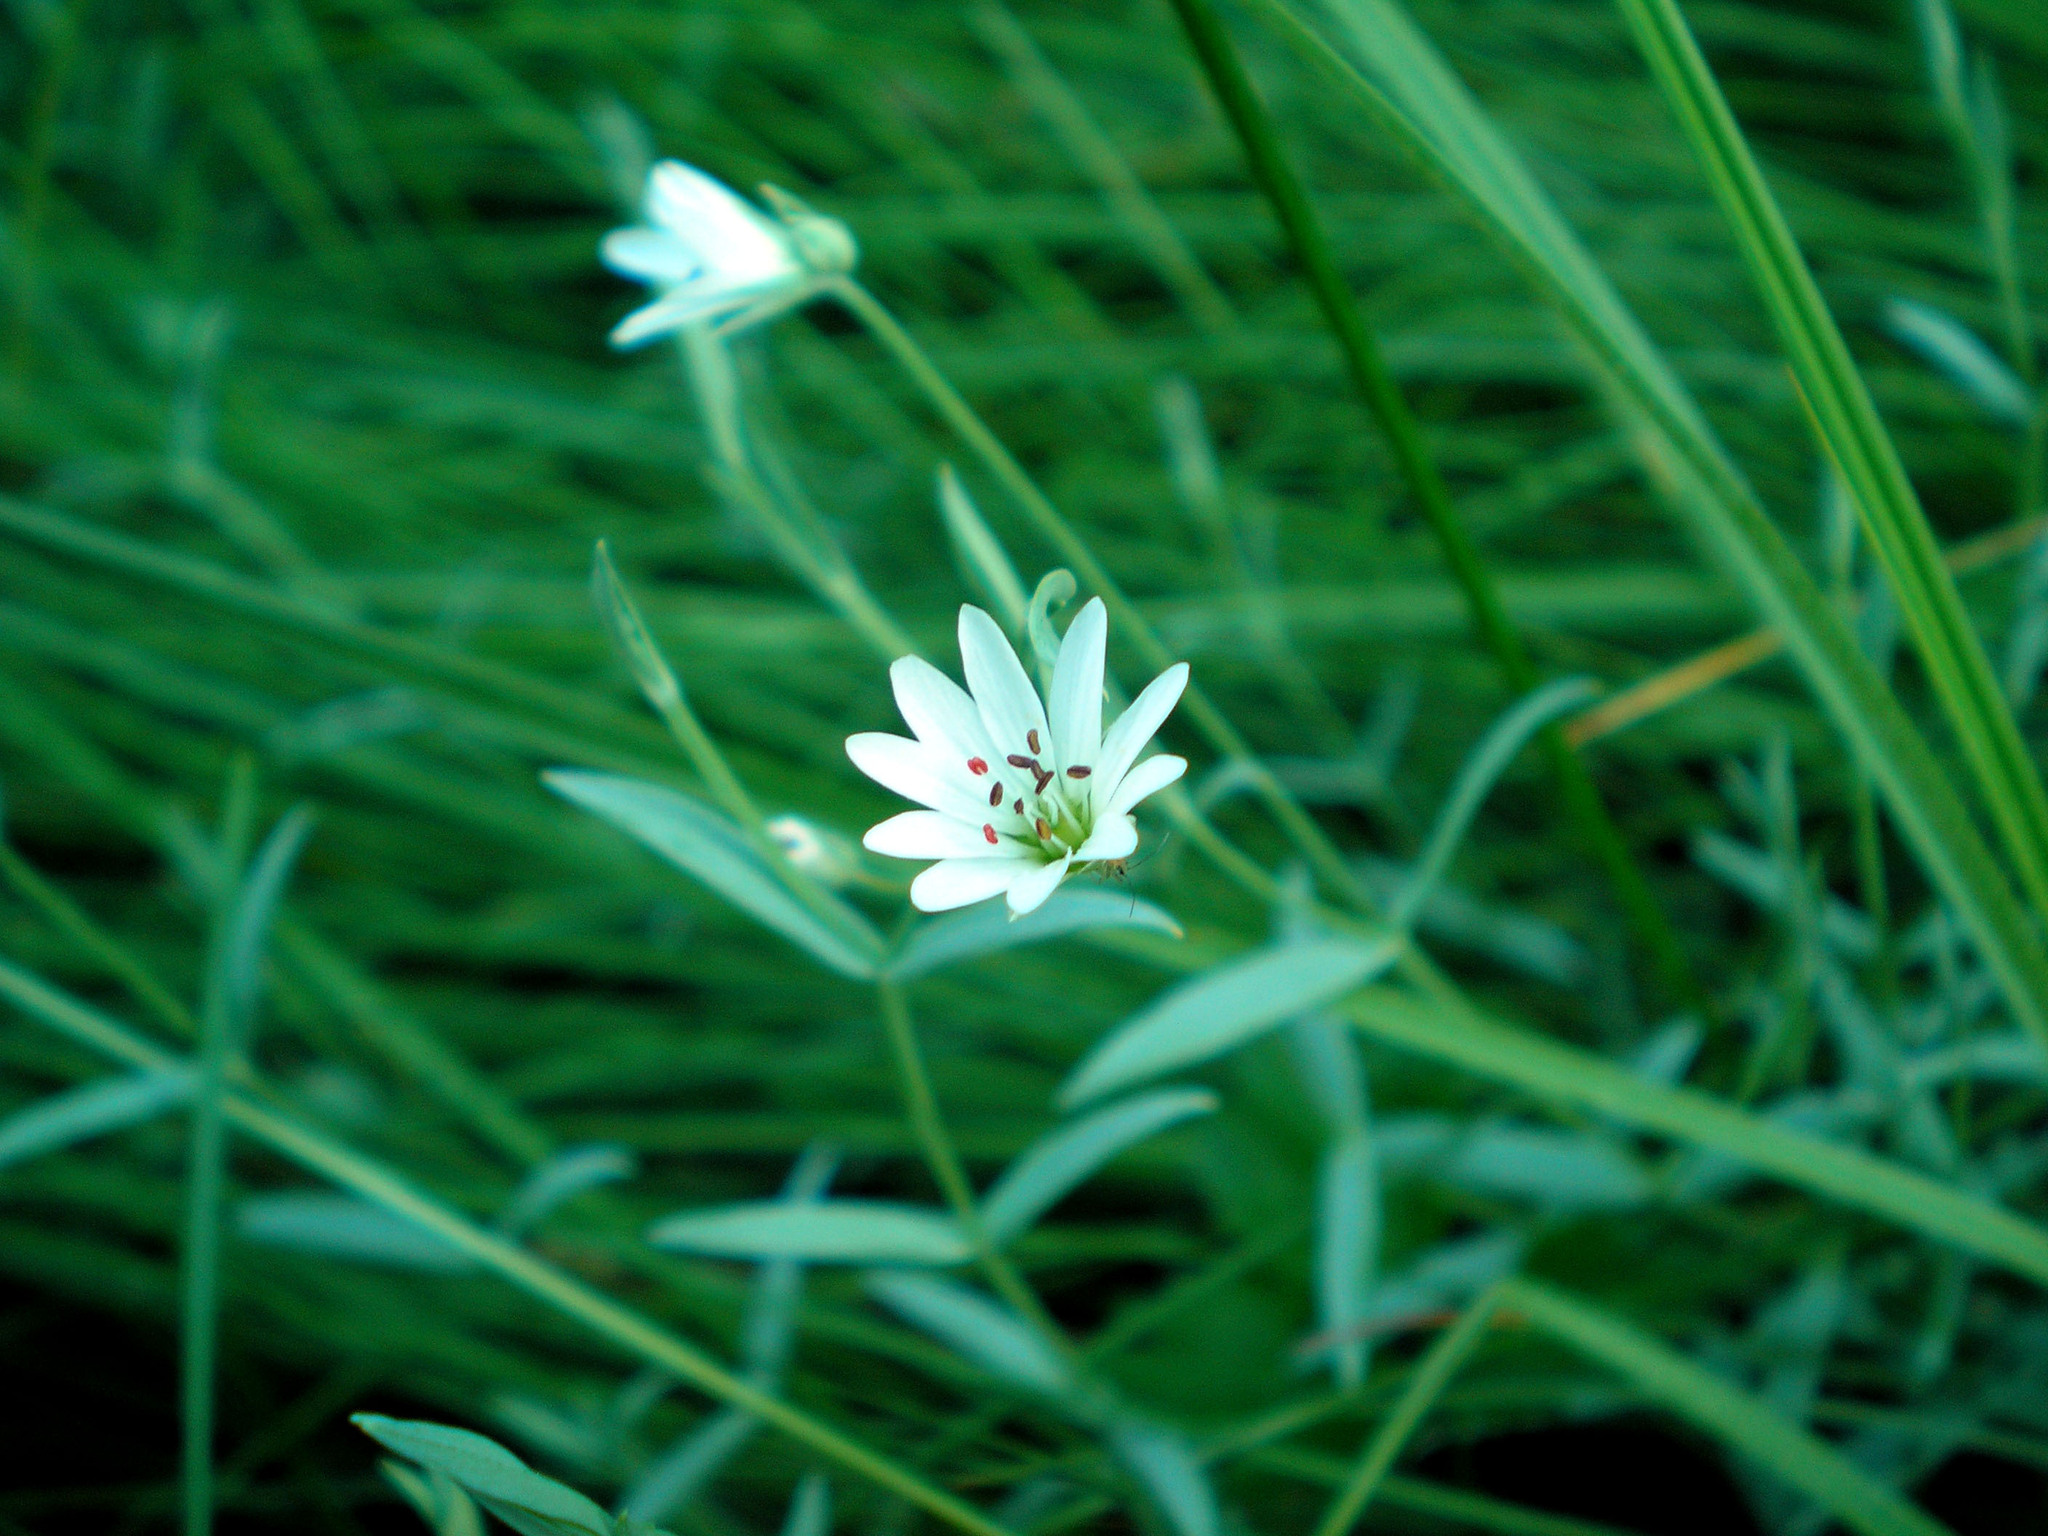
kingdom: Plantae
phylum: Tracheophyta
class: Magnoliopsida
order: Caryophyllales
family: Caryophyllaceae
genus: Stellaria
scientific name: Stellaria palustris
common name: Marsh stitchwort
